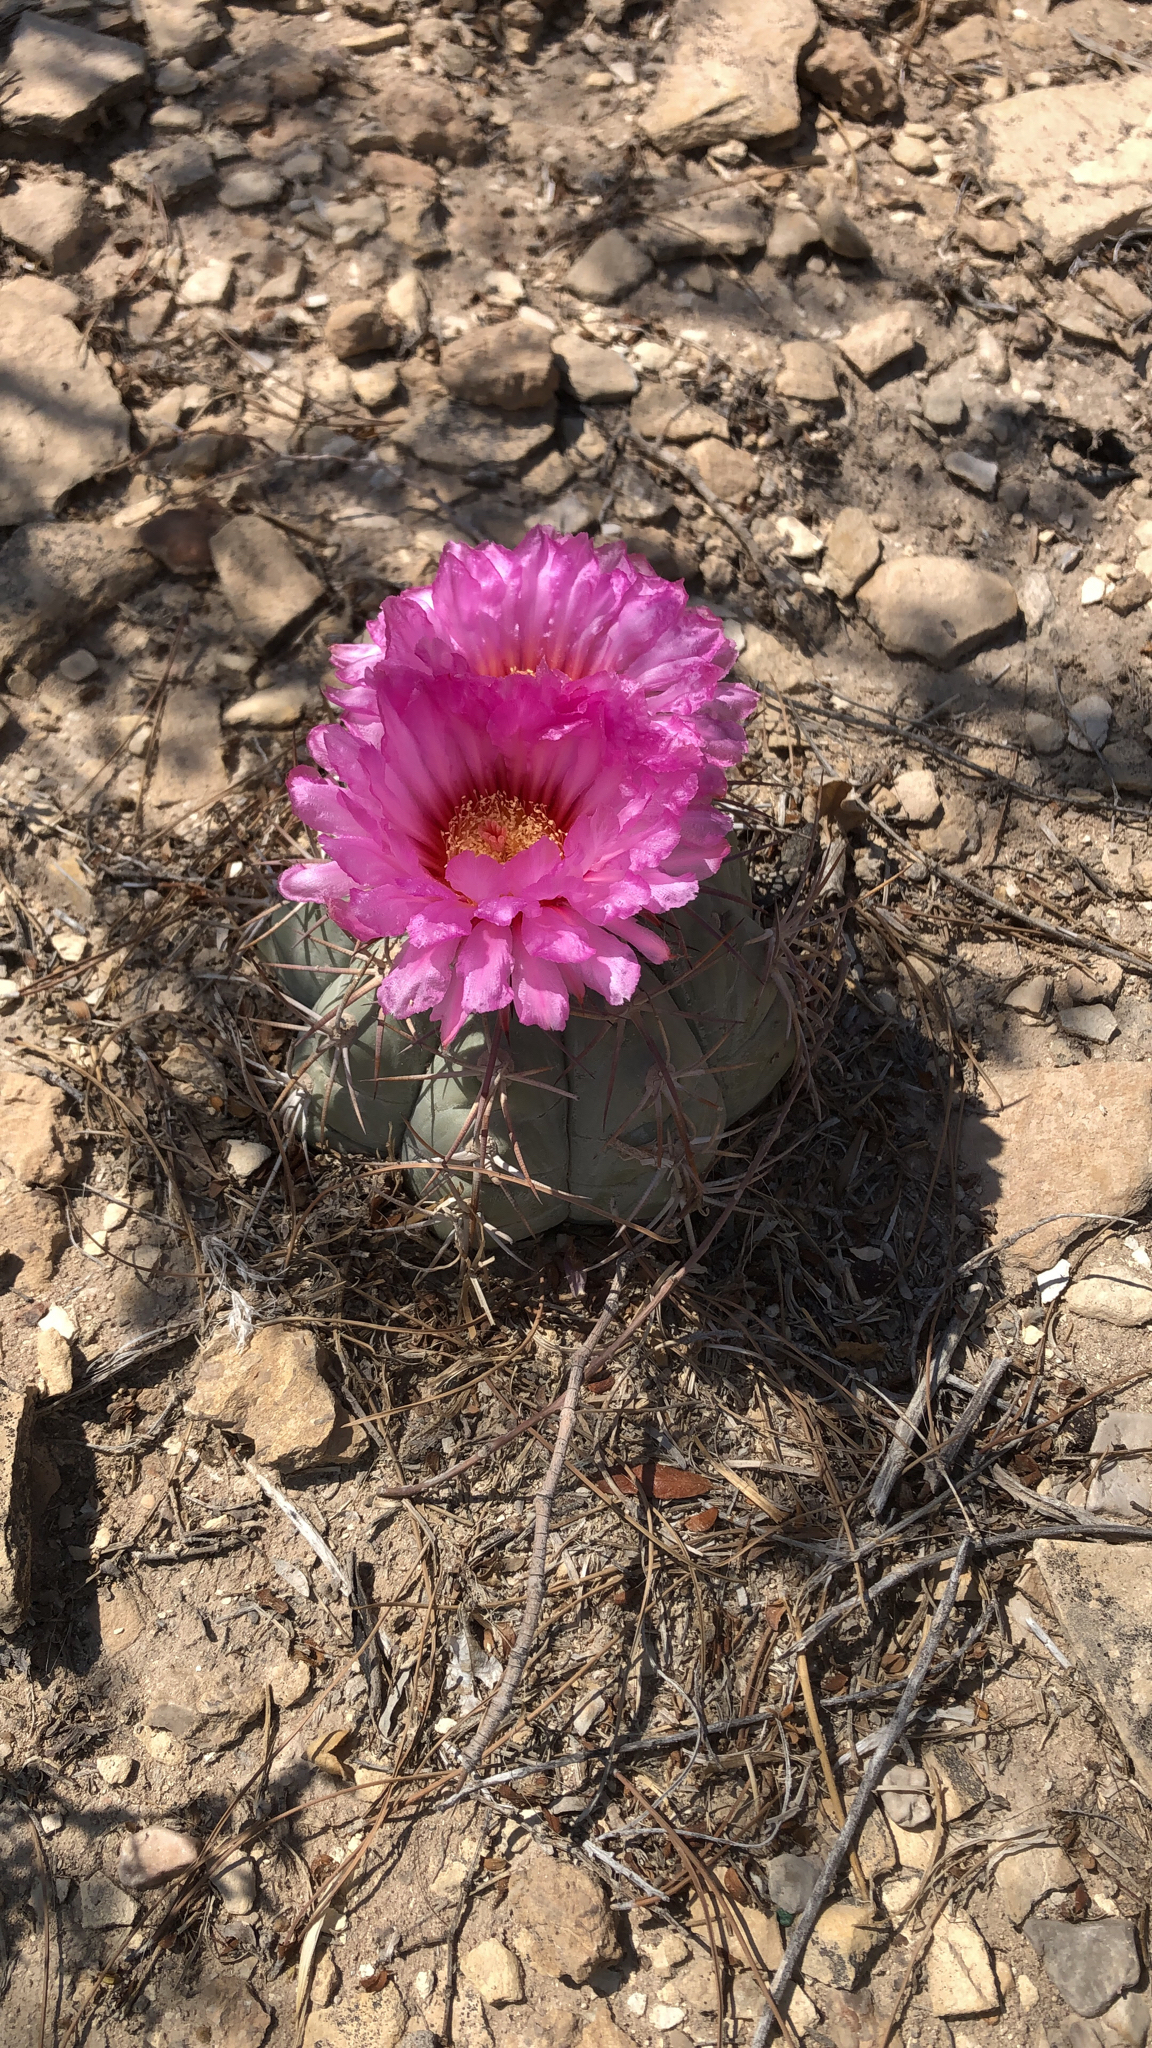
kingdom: Plantae
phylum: Tracheophyta
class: Magnoliopsida
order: Caryophyllales
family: Cactaceae
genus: Echinocactus
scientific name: Echinocactus horizonthalonius
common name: Devilshead
